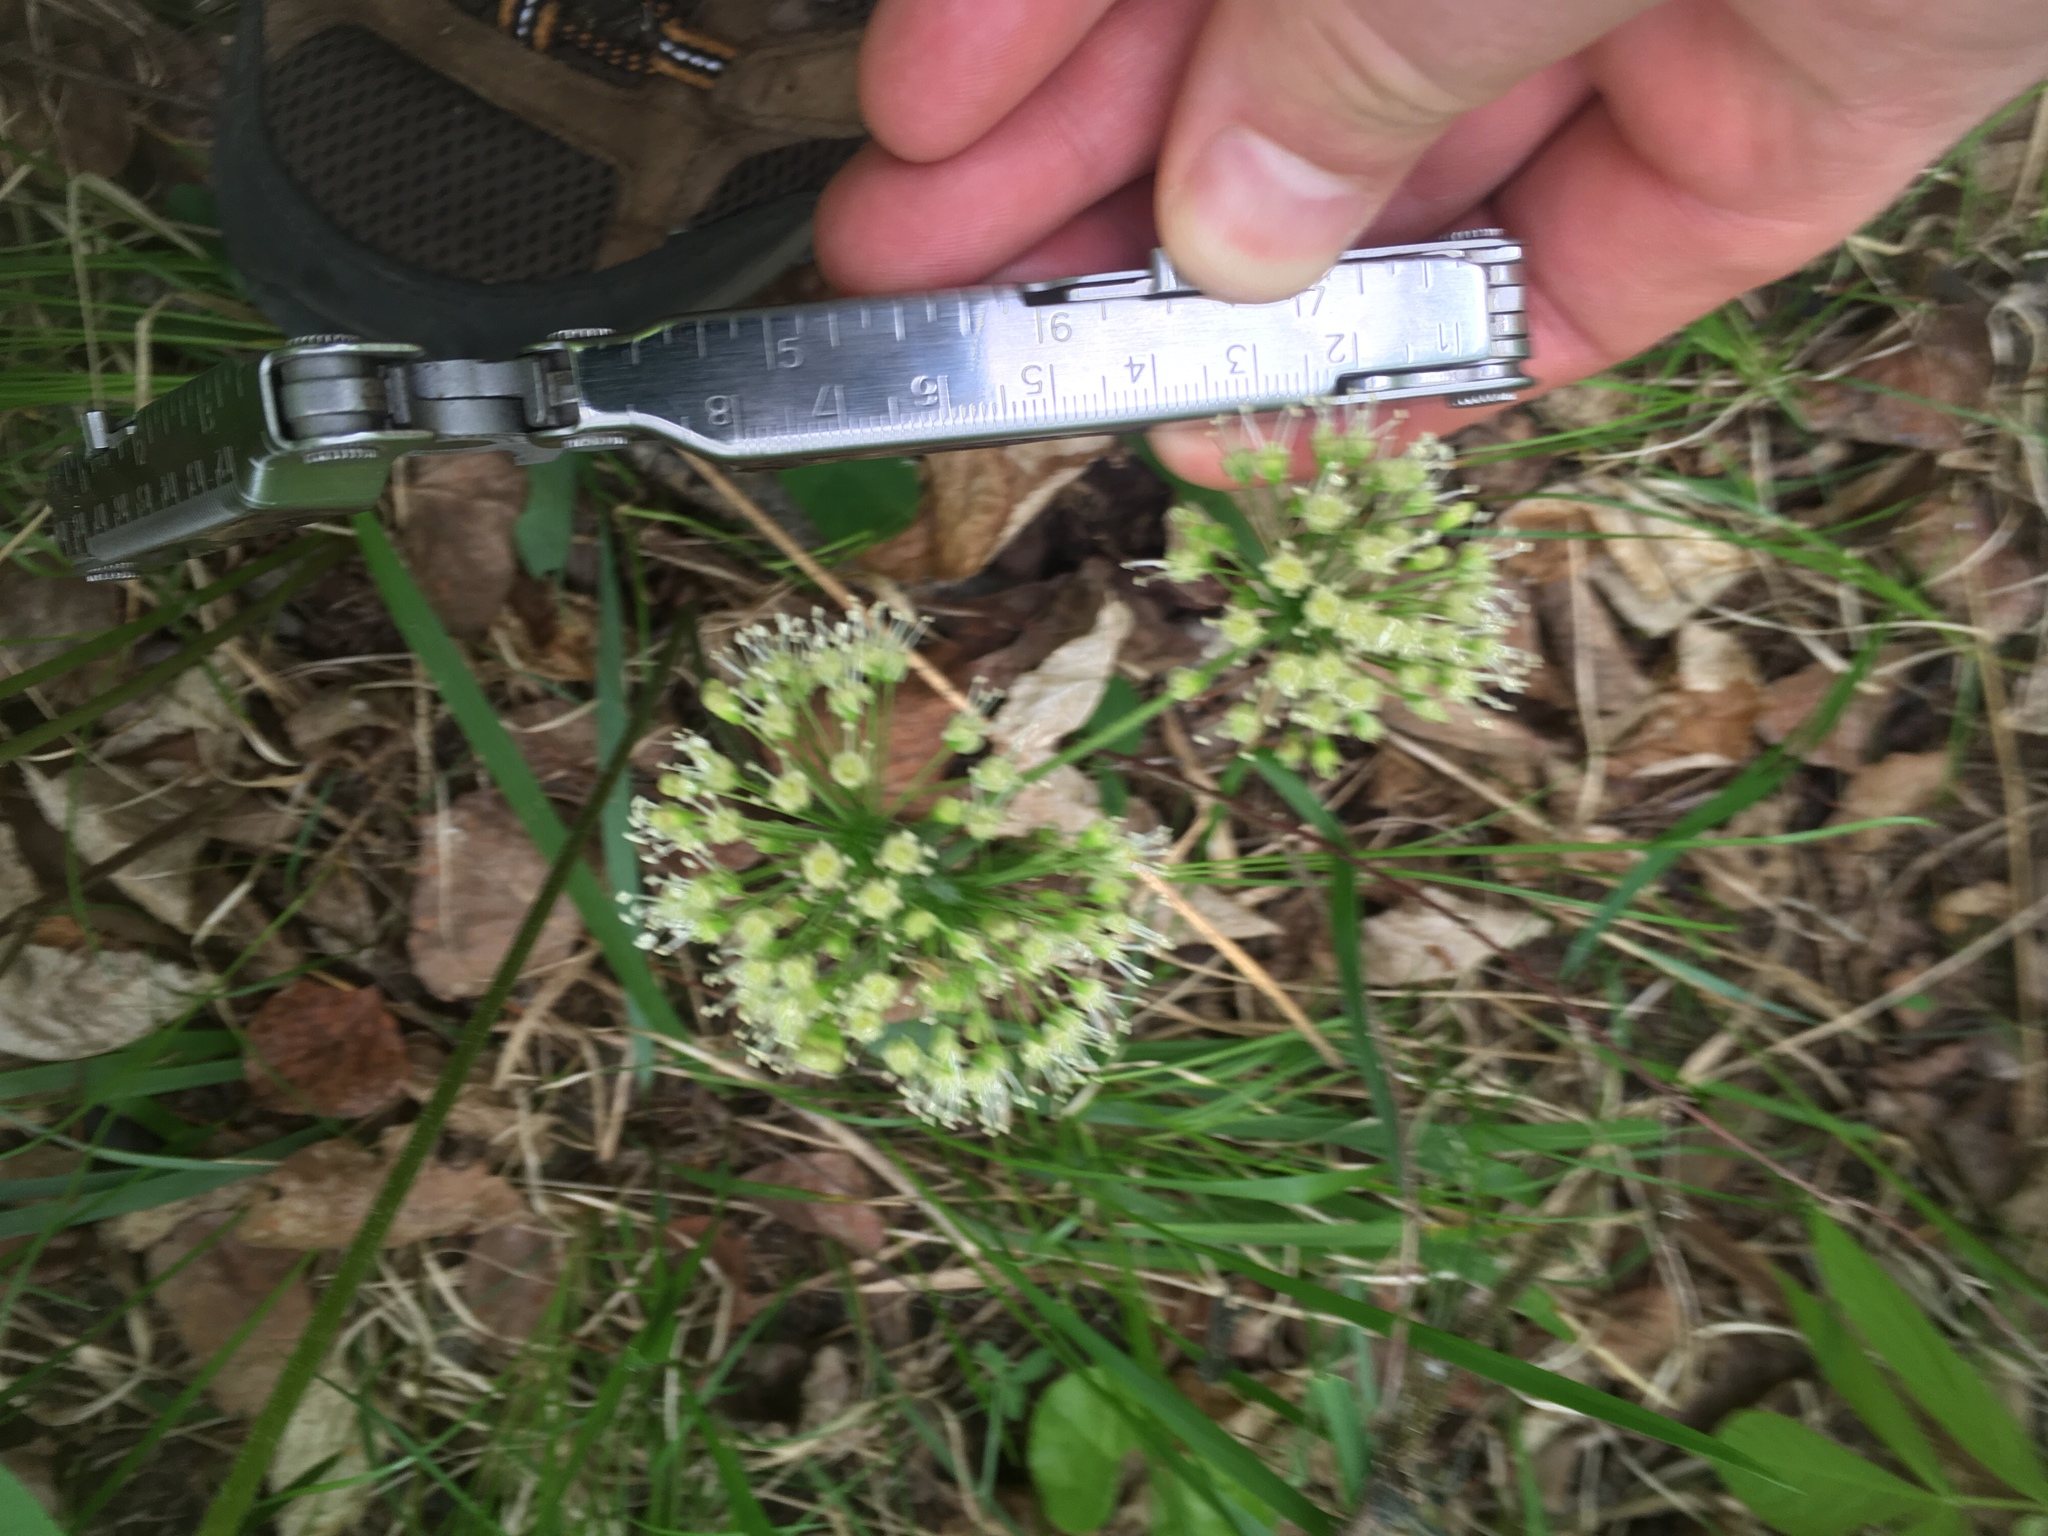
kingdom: Plantae
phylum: Tracheophyta
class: Magnoliopsida
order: Apiales
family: Araliaceae
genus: Aralia
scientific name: Aralia nudicaulis
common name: Wild sarsaparilla
